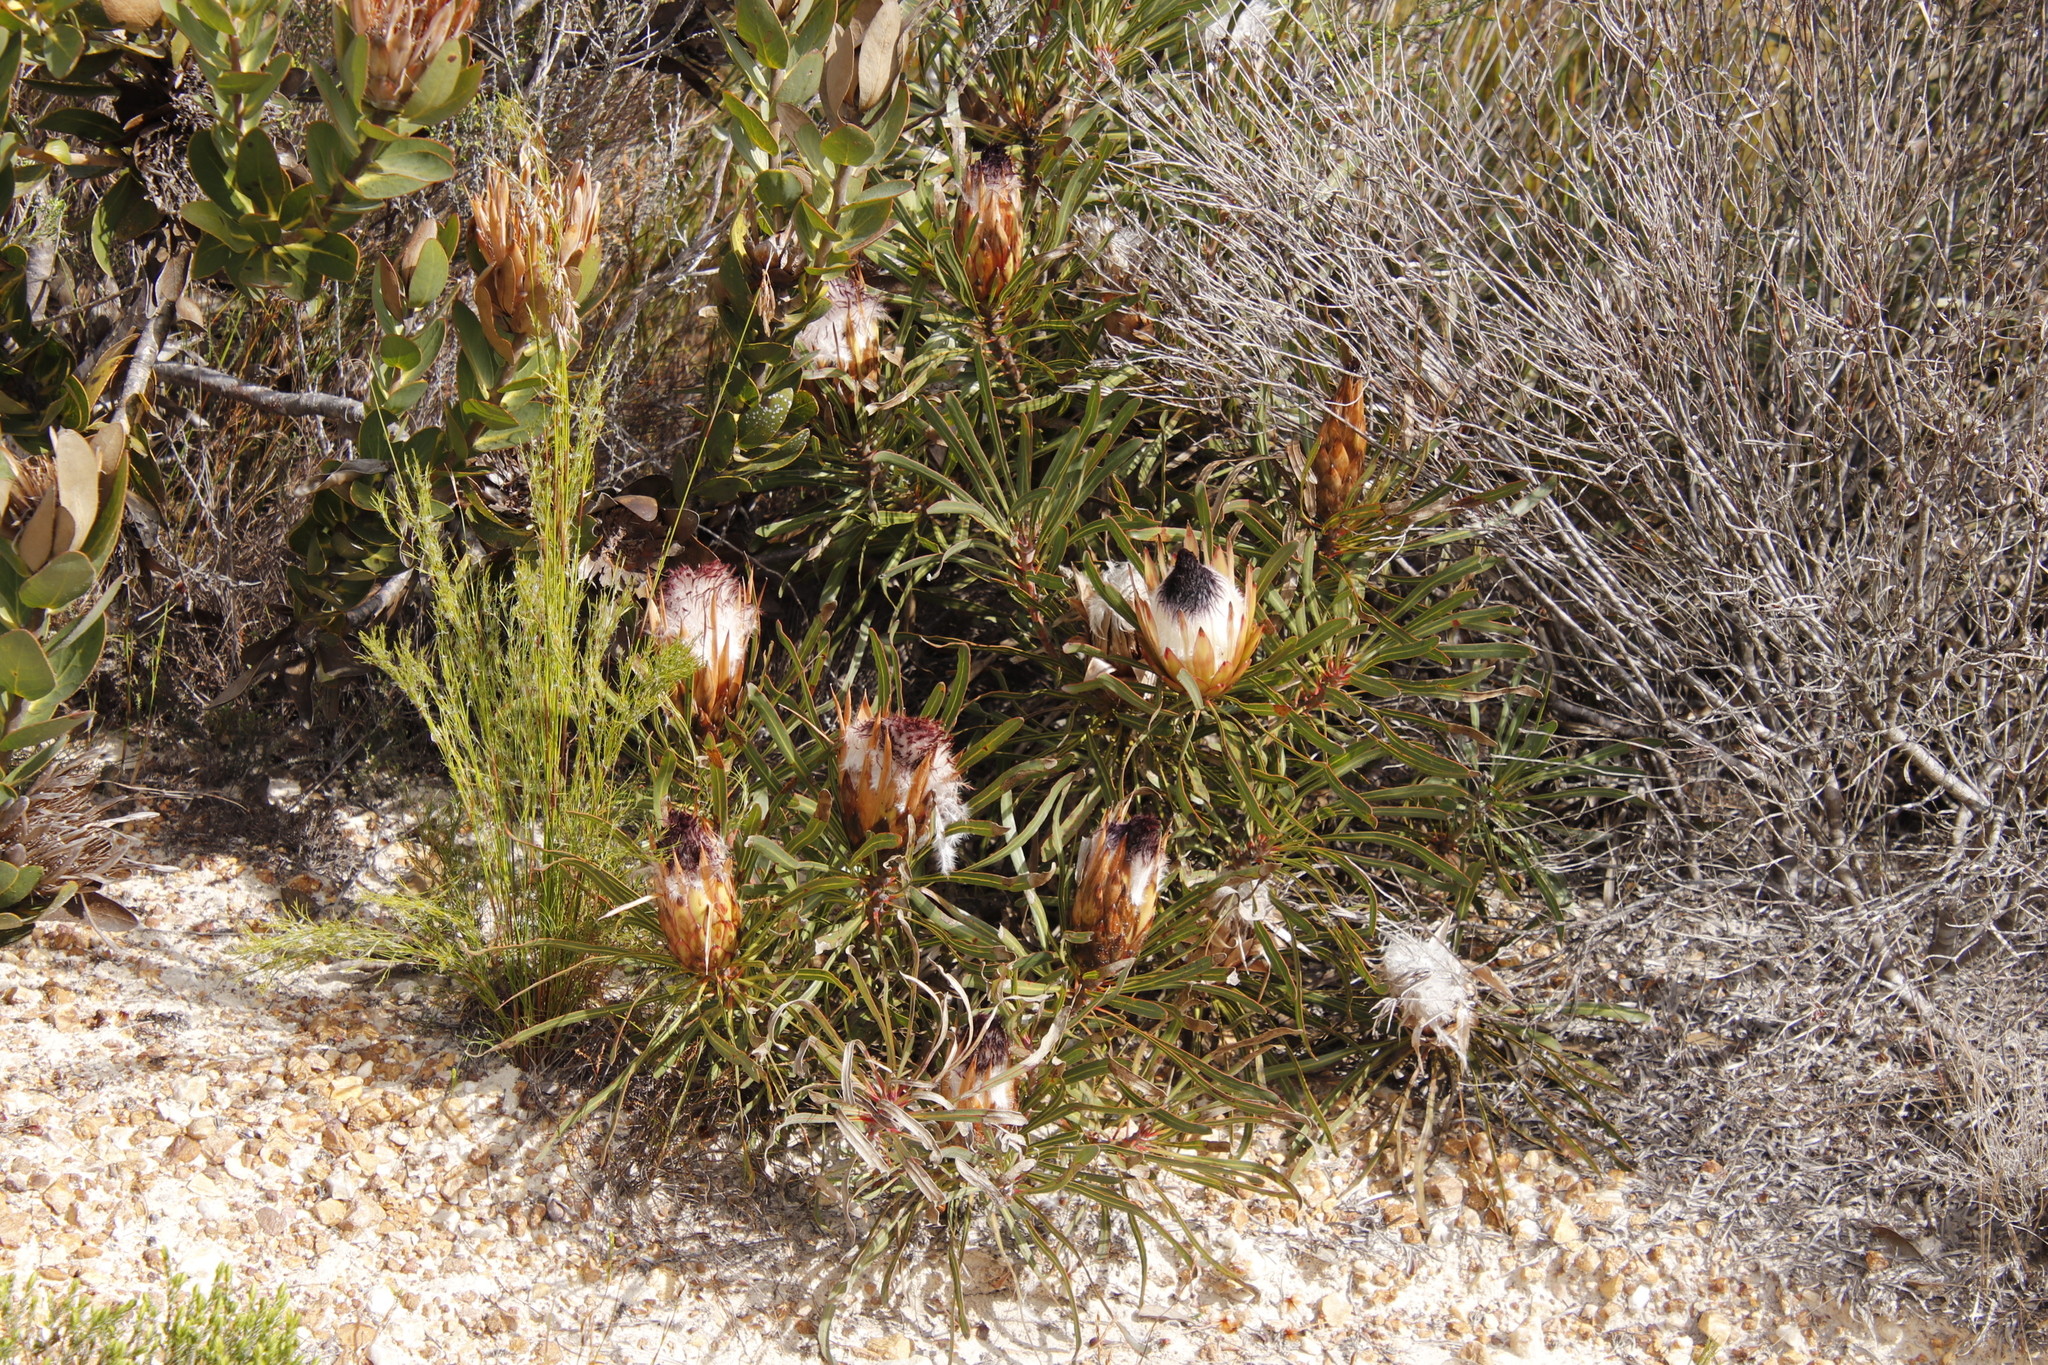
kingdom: Plantae
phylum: Tracheophyta
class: Magnoliopsida
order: Proteales
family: Proteaceae
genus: Protea
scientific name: Protea longifolia
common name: Long-leaf sugarbush
